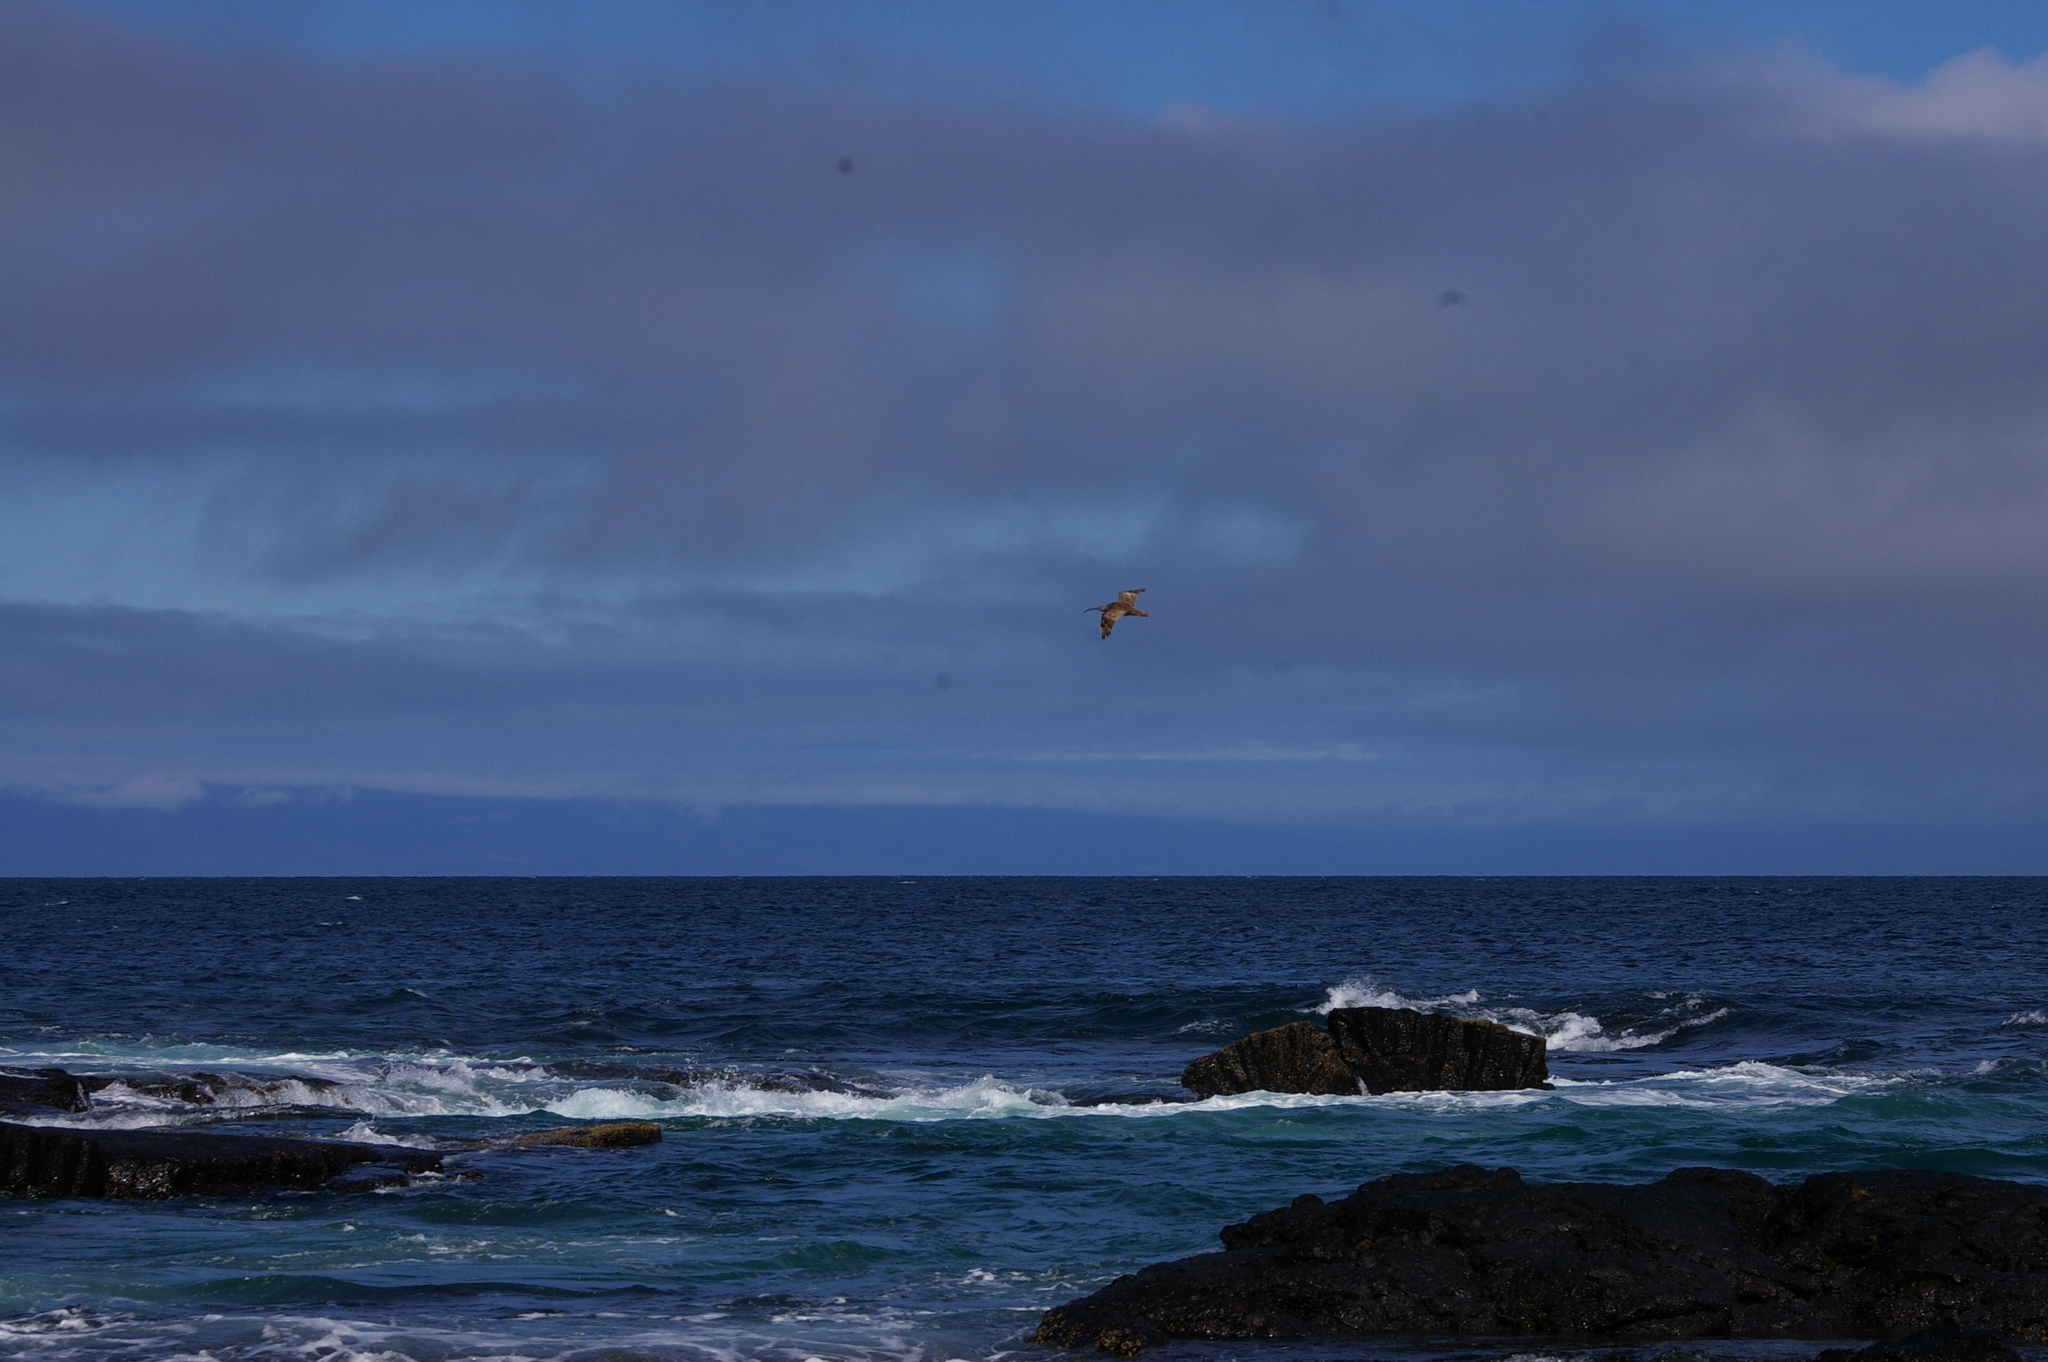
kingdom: Animalia
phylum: Chordata
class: Aves
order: Charadriiformes
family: Scolopacidae
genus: Numenius
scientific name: Numenius phaeopus
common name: Whimbrel
